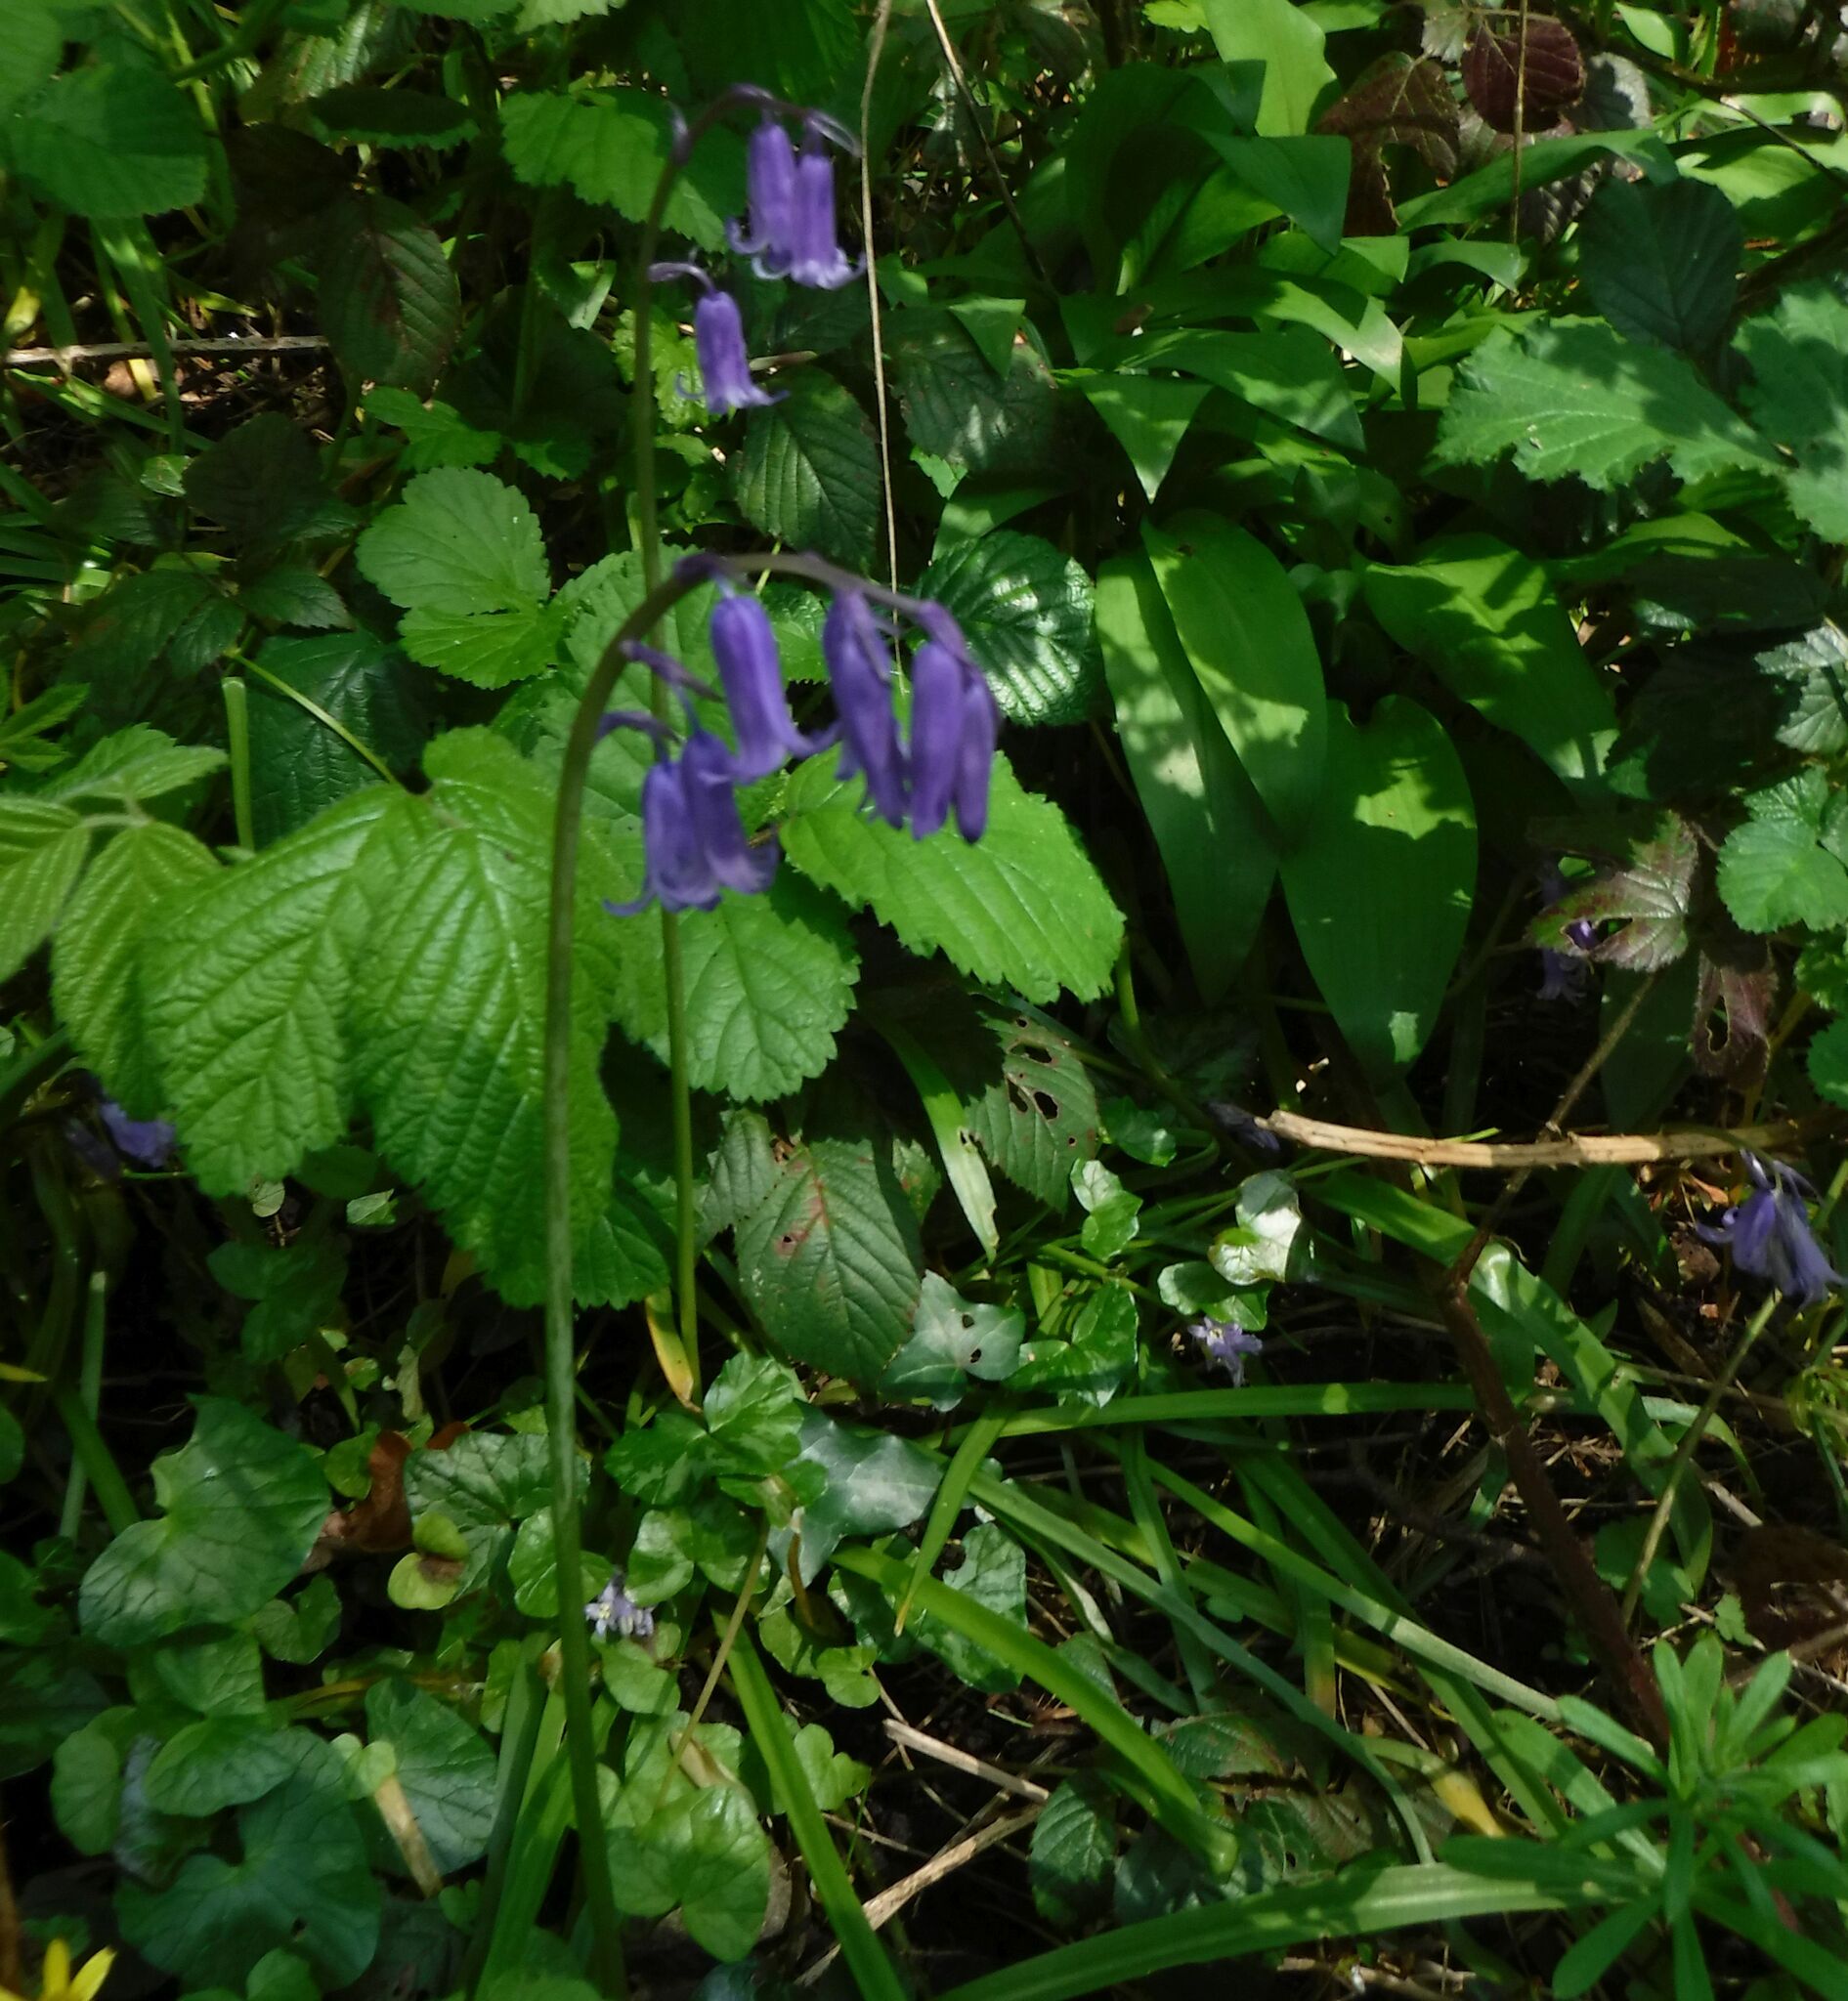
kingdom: Plantae
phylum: Tracheophyta
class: Liliopsida
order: Asparagales
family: Asparagaceae
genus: Hyacinthoides
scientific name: Hyacinthoides non-scripta
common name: Bluebell
